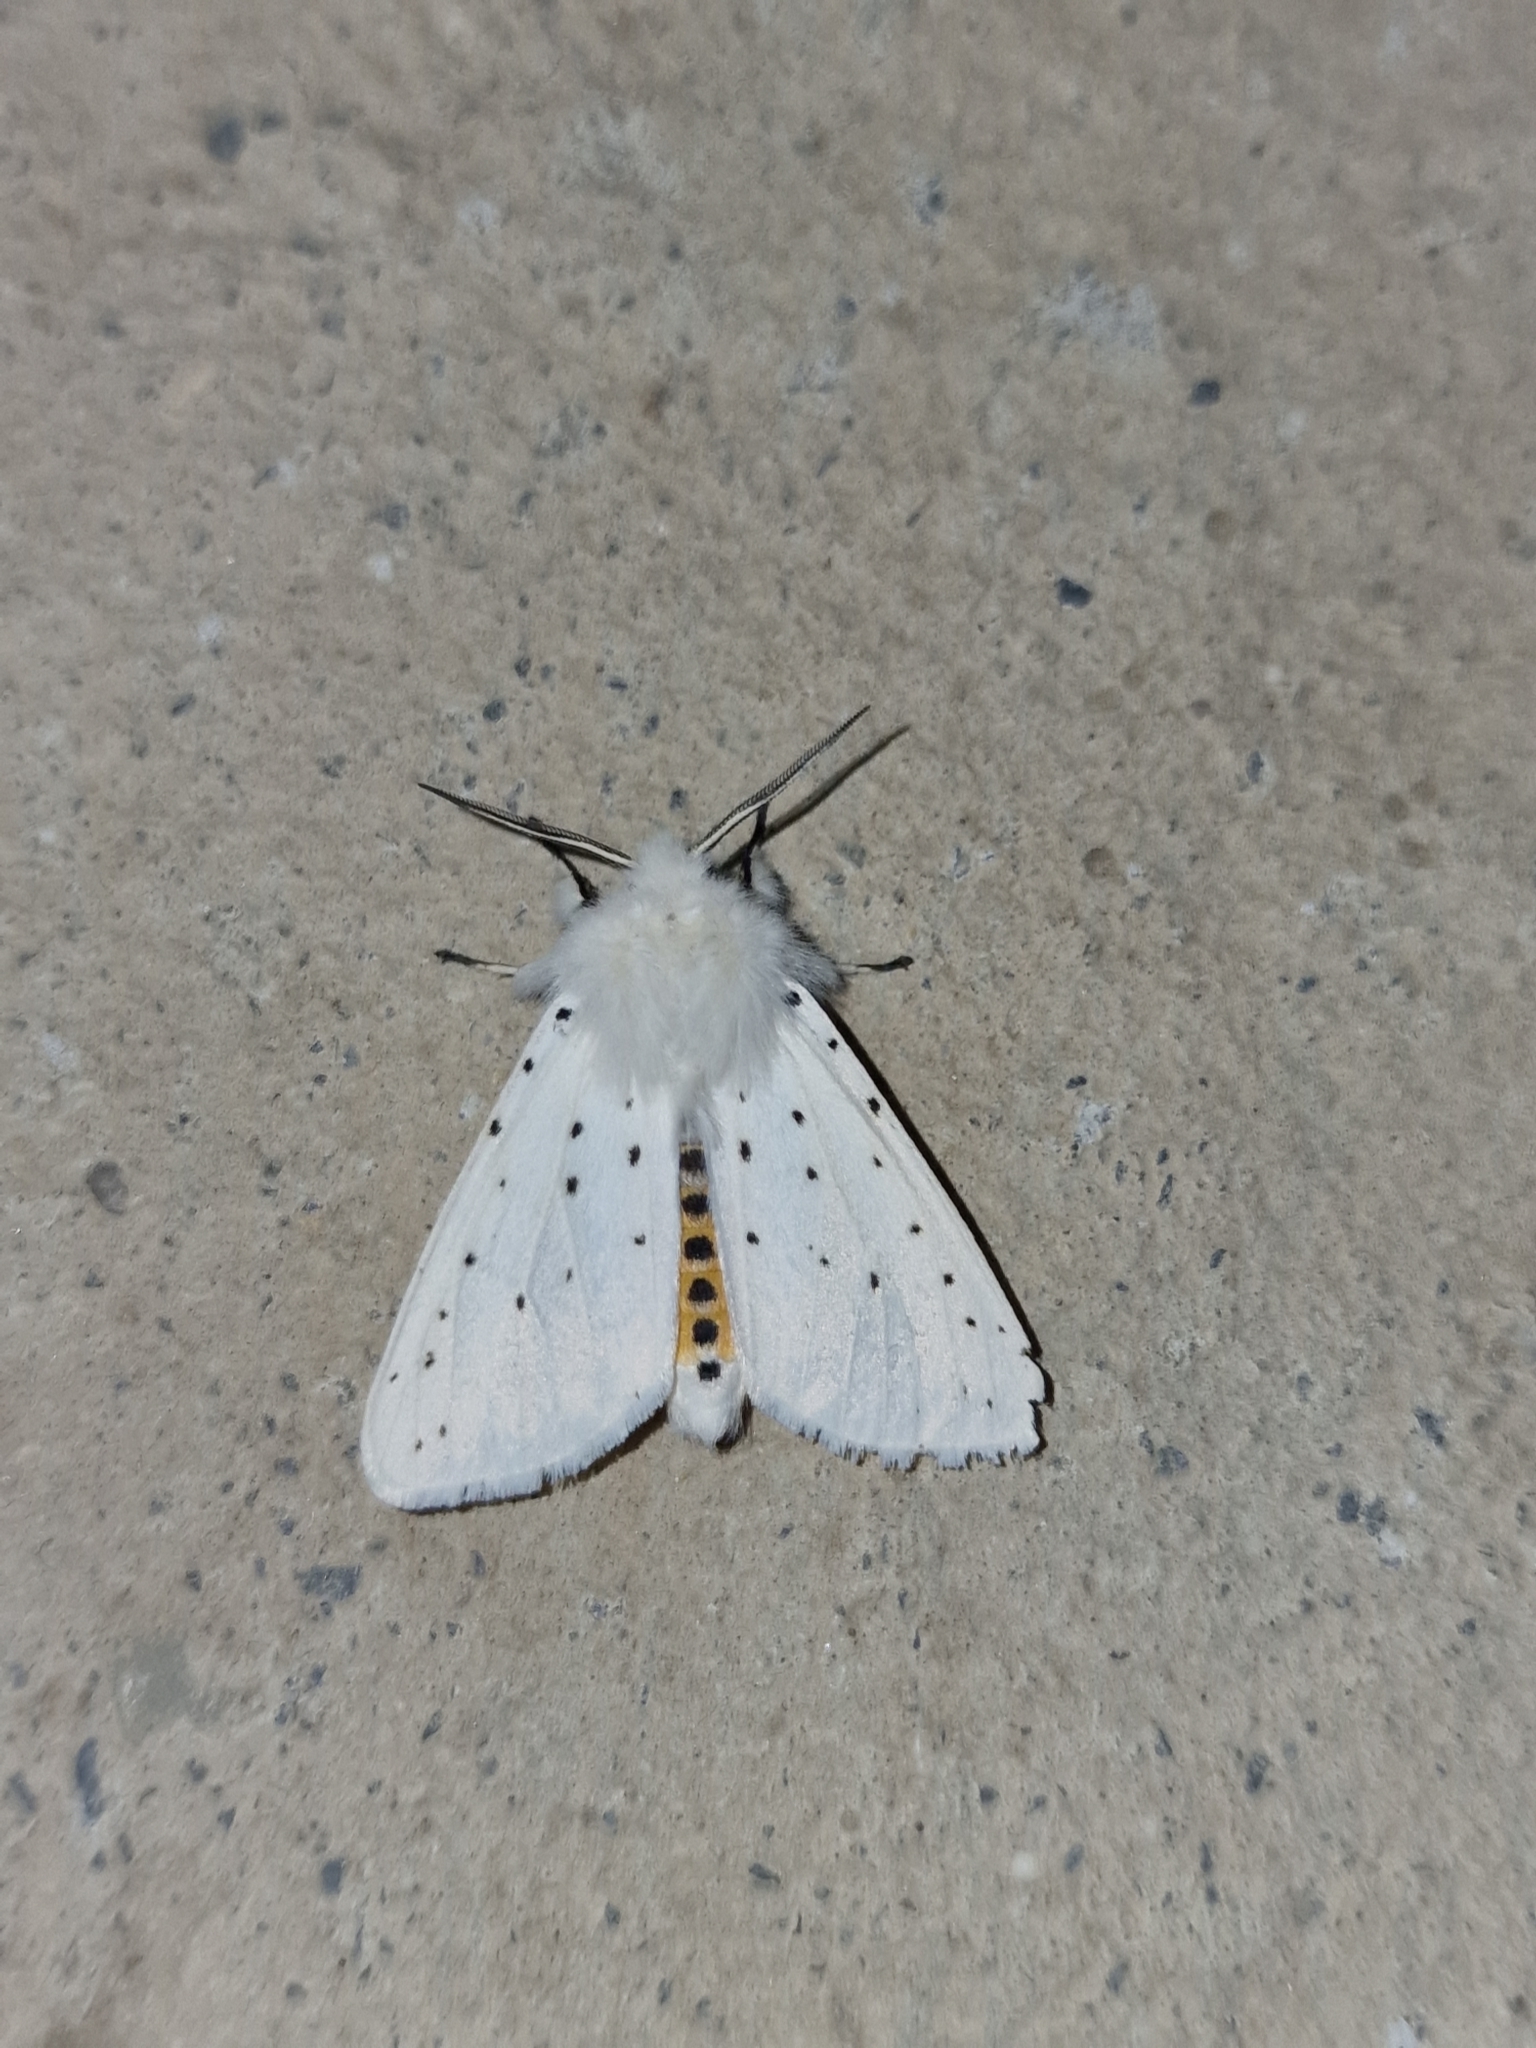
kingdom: Animalia
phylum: Arthropoda
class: Insecta
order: Lepidoptera
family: Erebidae
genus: Spilosoma
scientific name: Spilosoma lubricipeda
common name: White ermine
